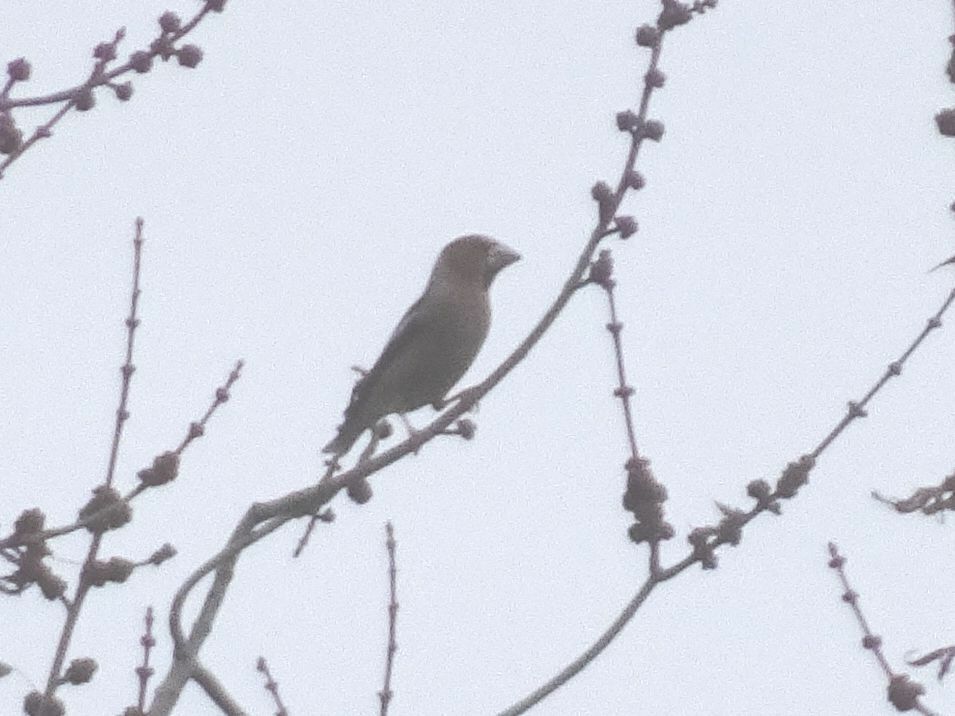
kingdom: Animalia
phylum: Chordata
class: Aves
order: Passeriformes
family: Fringillidae
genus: Coccothraustes
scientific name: Coccothraustes coccothraustes
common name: Hawfinch
